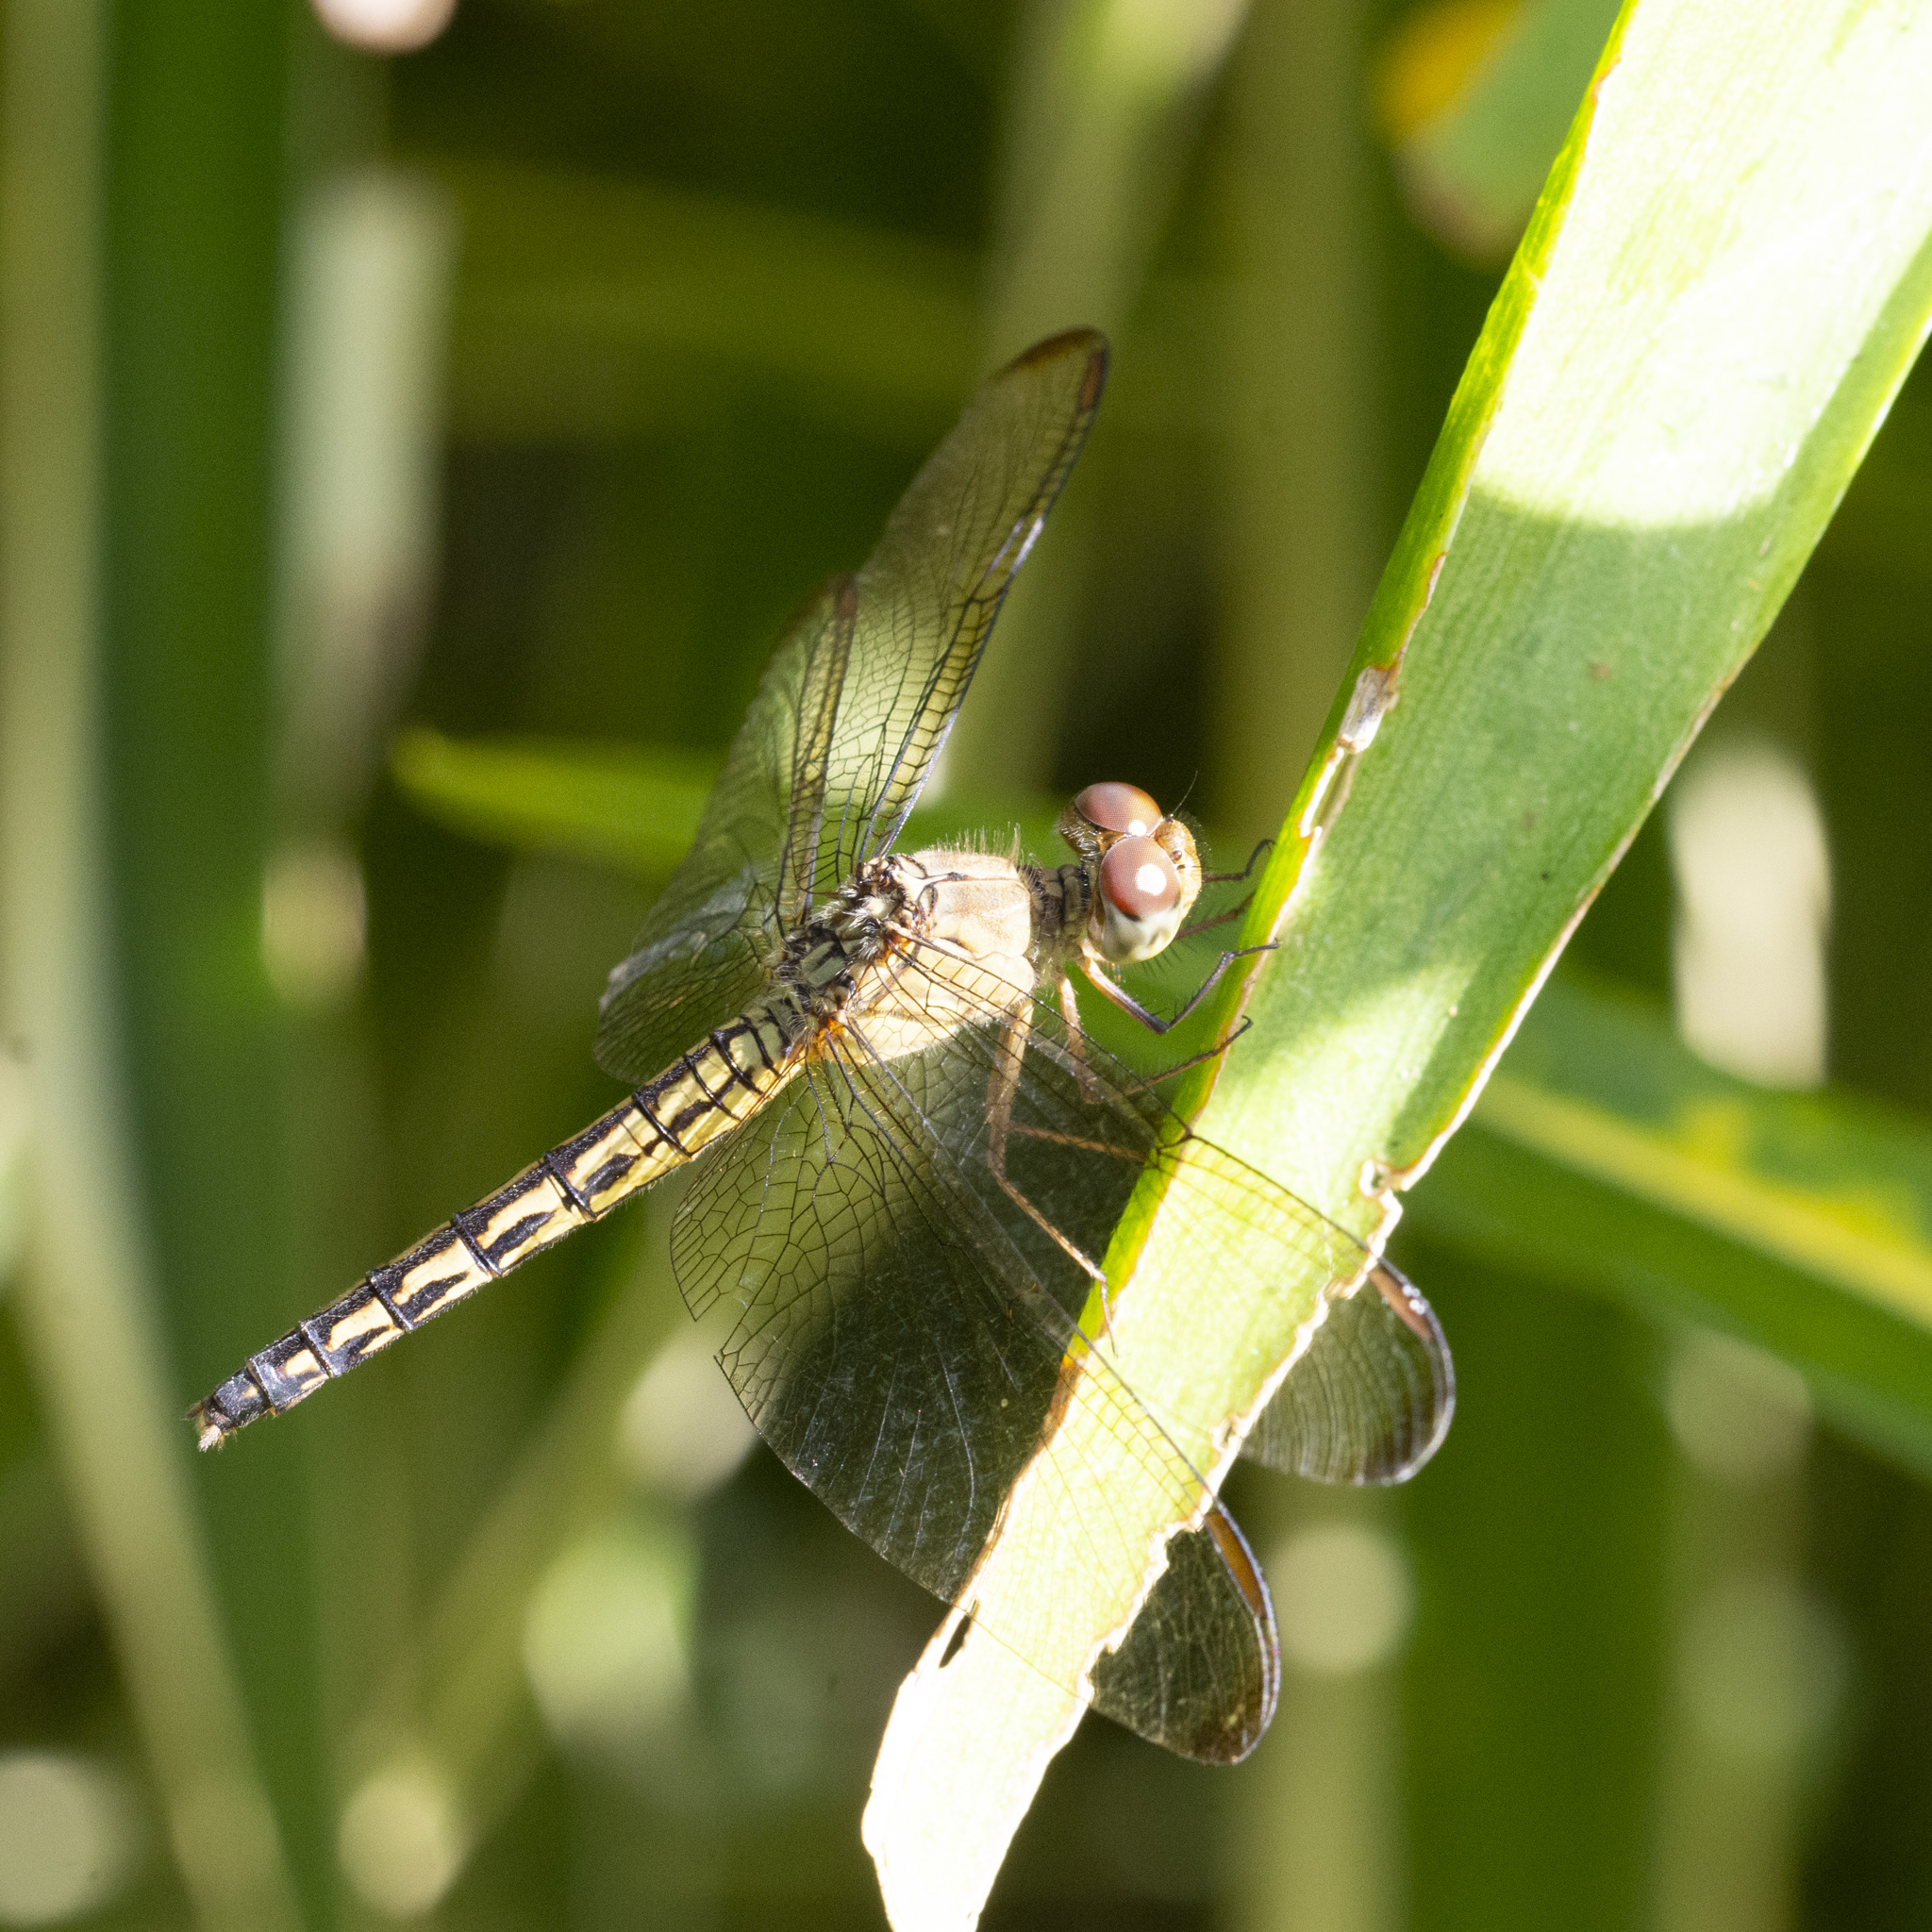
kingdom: Animalia
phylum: Arthropoda
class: Insecta
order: Odonata
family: Libellulidae
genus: Neurothemis
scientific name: Neurothemis terminata
